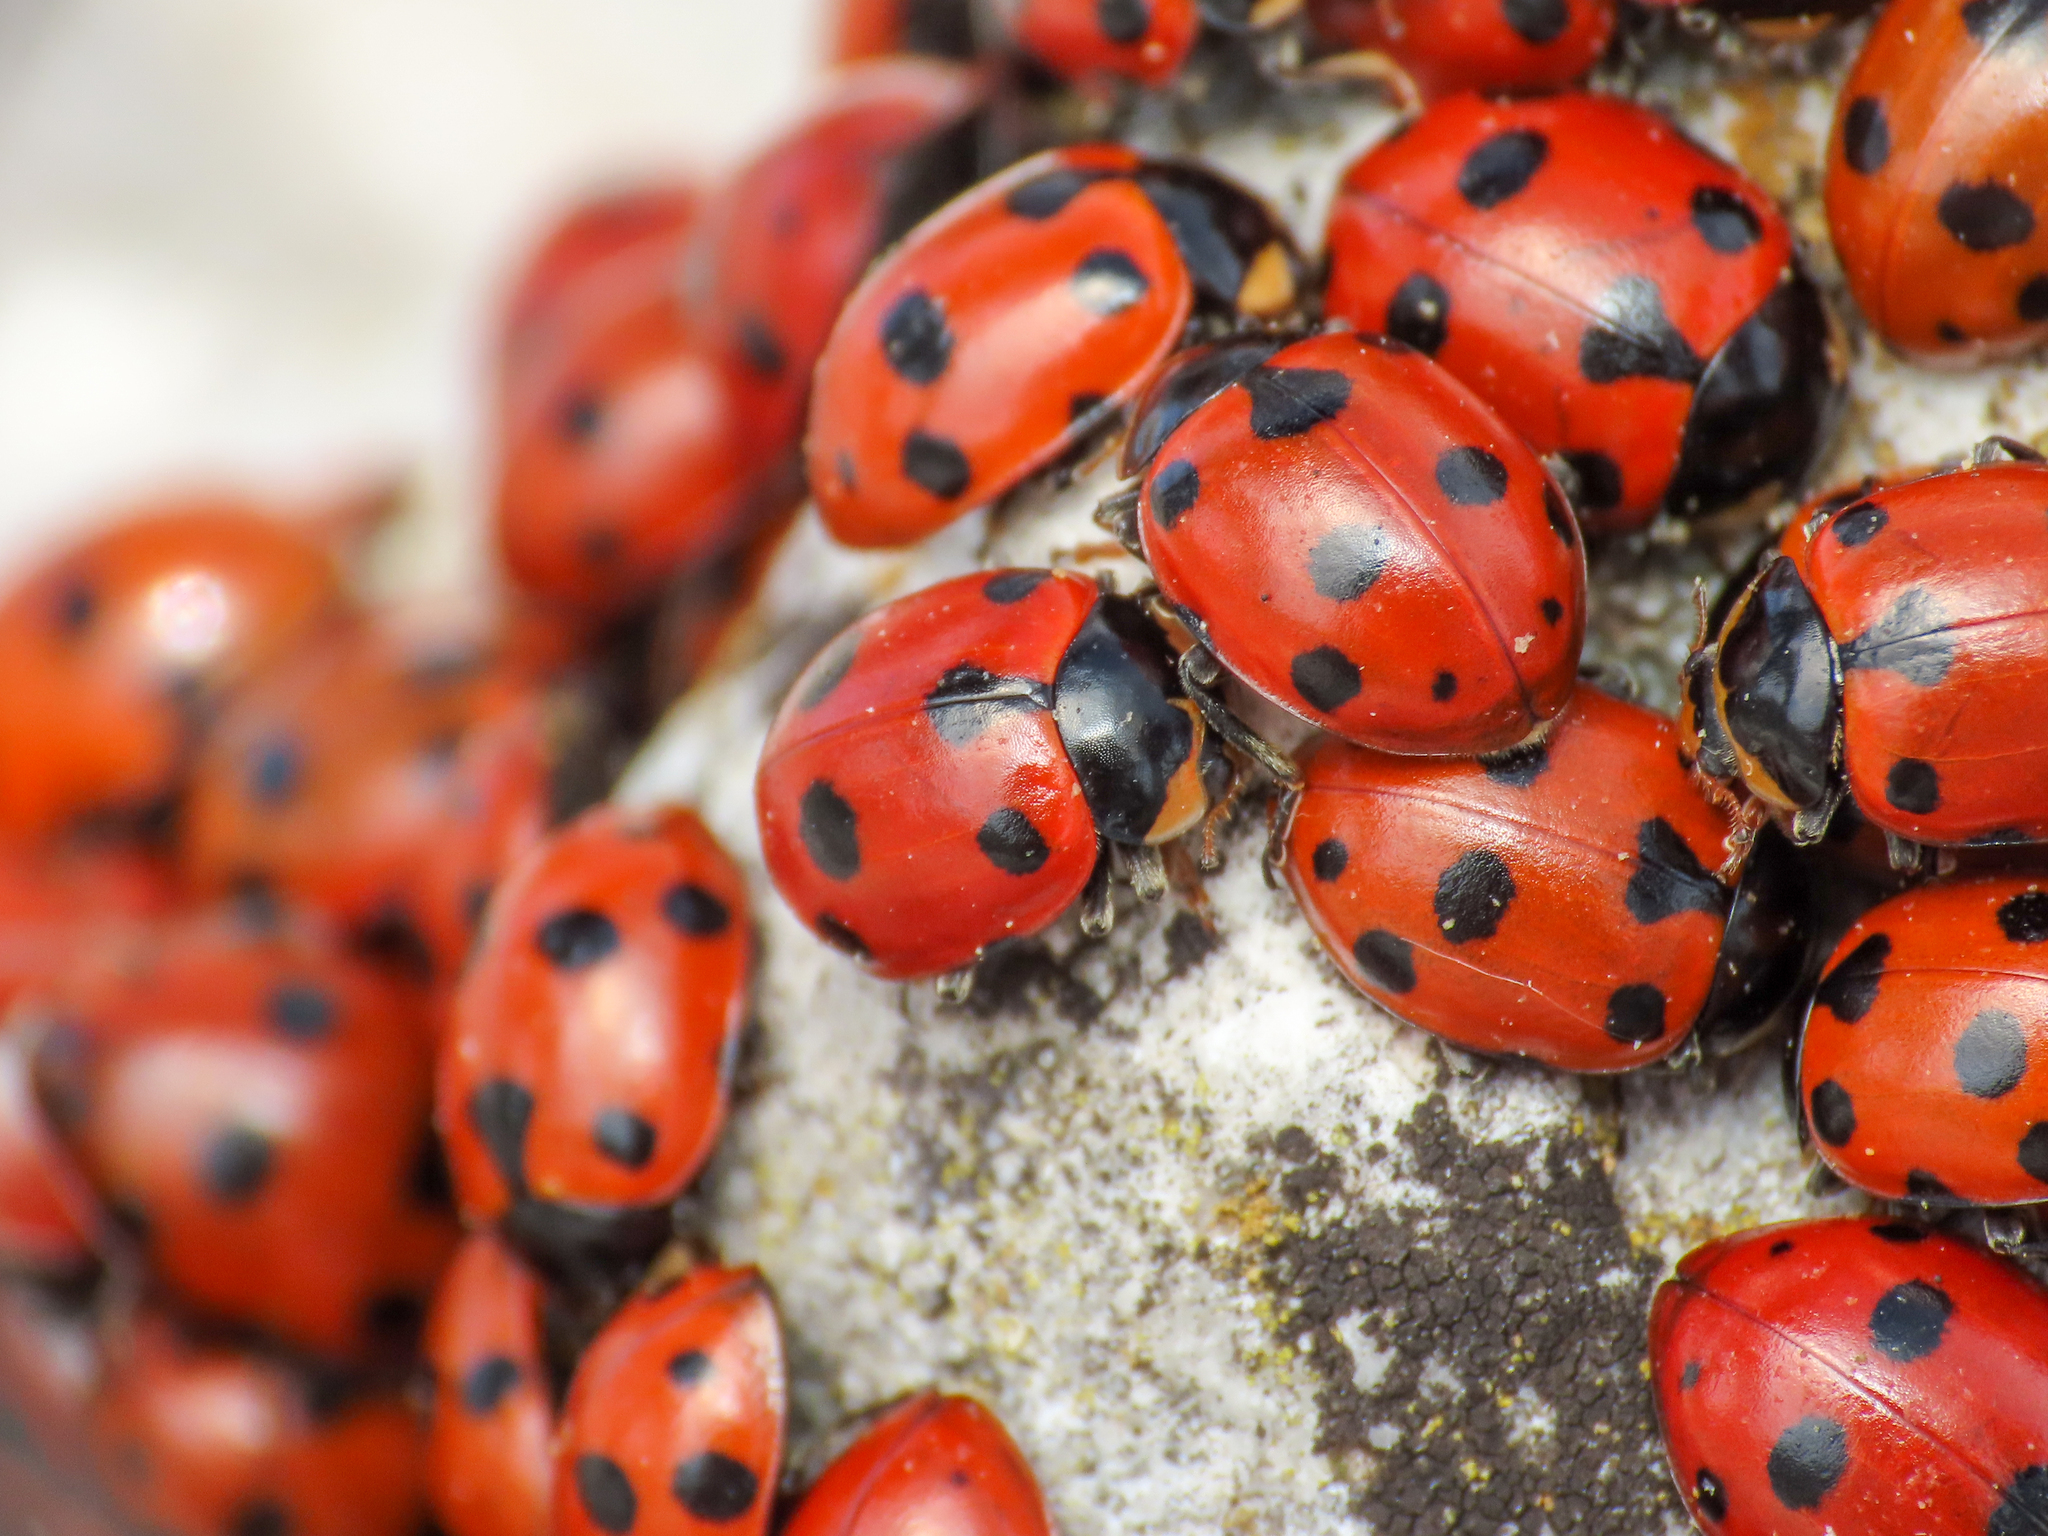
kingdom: Animalia
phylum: Arthropoda
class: Insecta
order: Coleoptera
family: Coccinellidae
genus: Ceratomegilla
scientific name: Ceratomegilla undecimnotata
